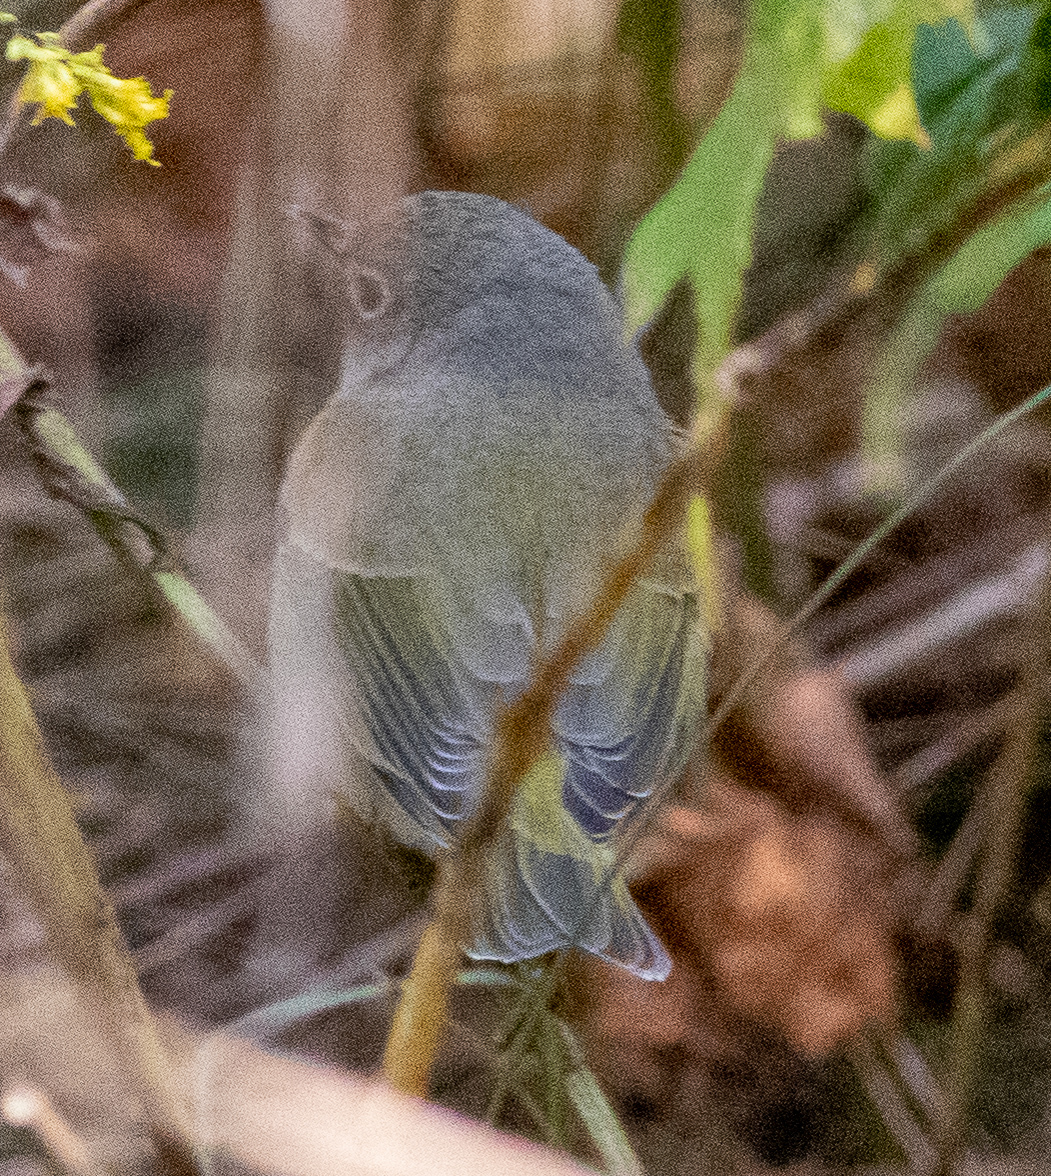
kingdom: Animalia
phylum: Chordata
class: Aves
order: Passeriformes
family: Parulidae
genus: Leiothlypis
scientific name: Leiothlypis ruficapilla
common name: Nashville warbler
